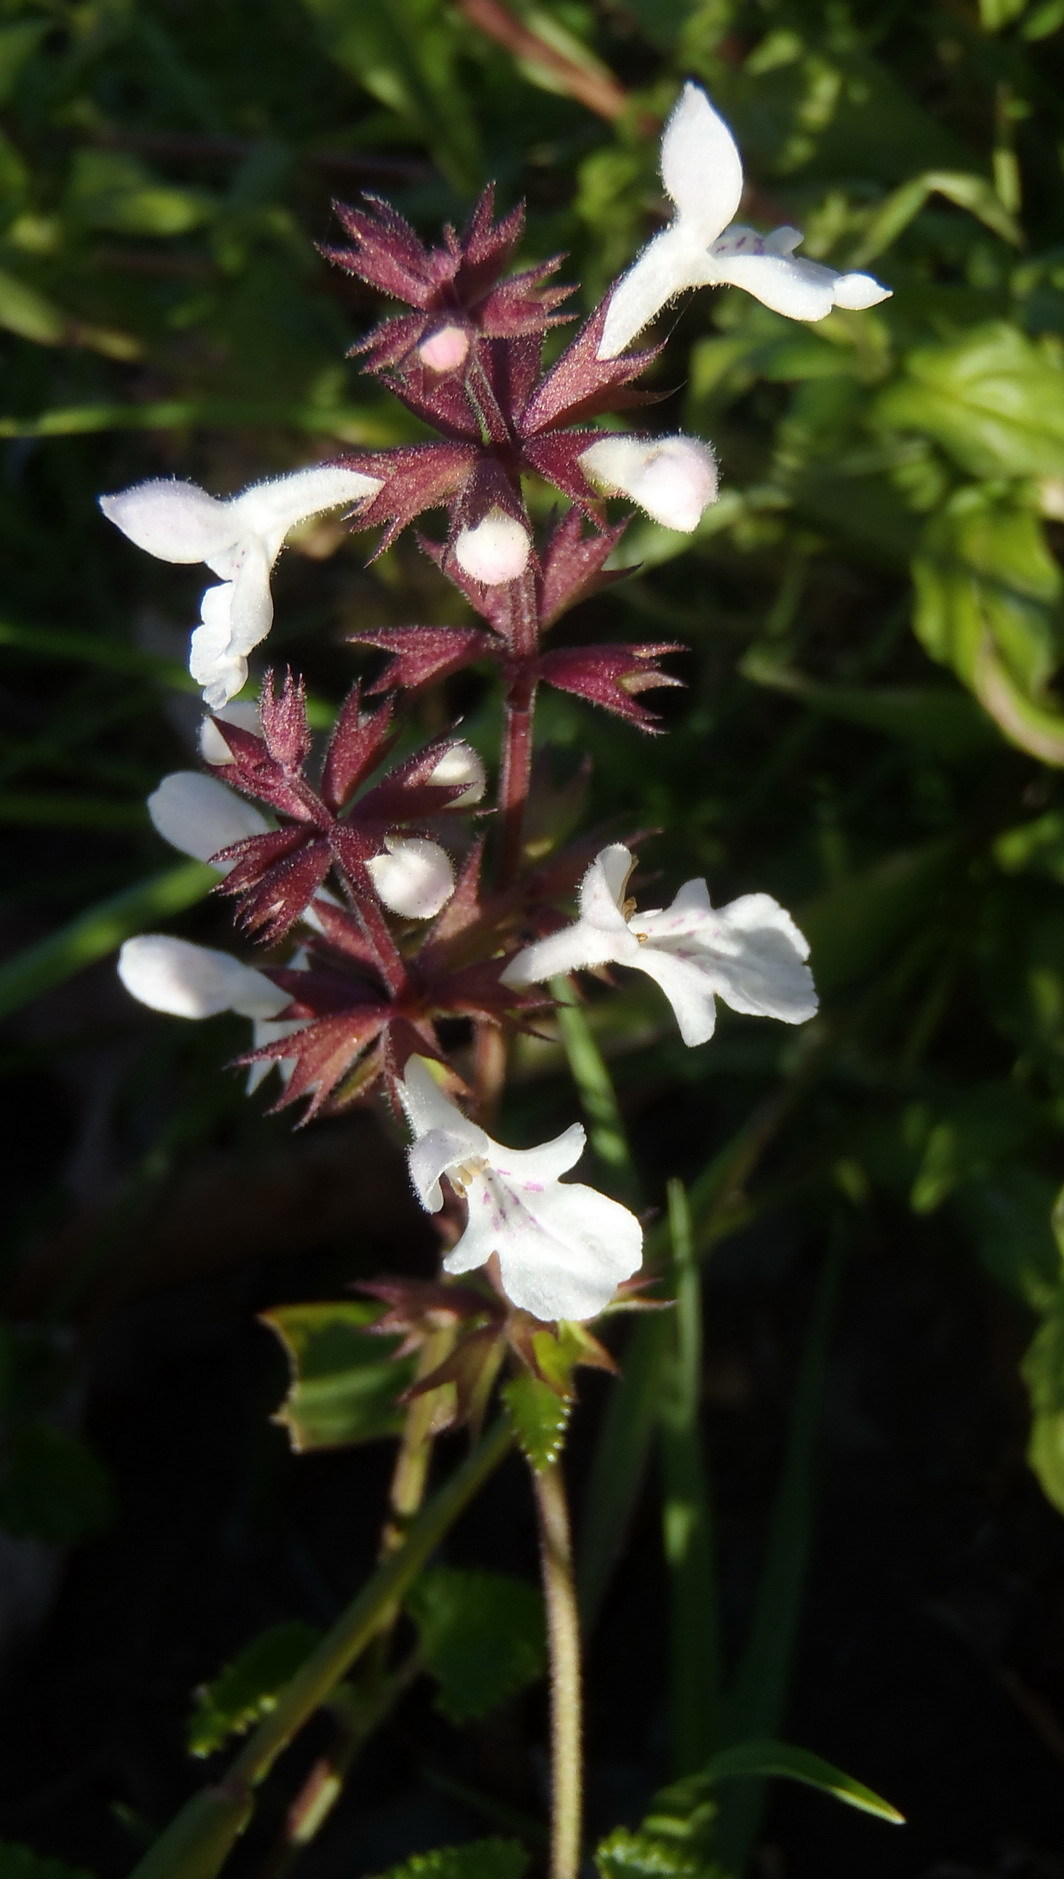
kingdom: Plantae
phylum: Tracheophyta
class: Magnoliopsida
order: Lamiales
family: Lamiaceae
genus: Stachys
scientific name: Stachys aethiopica
